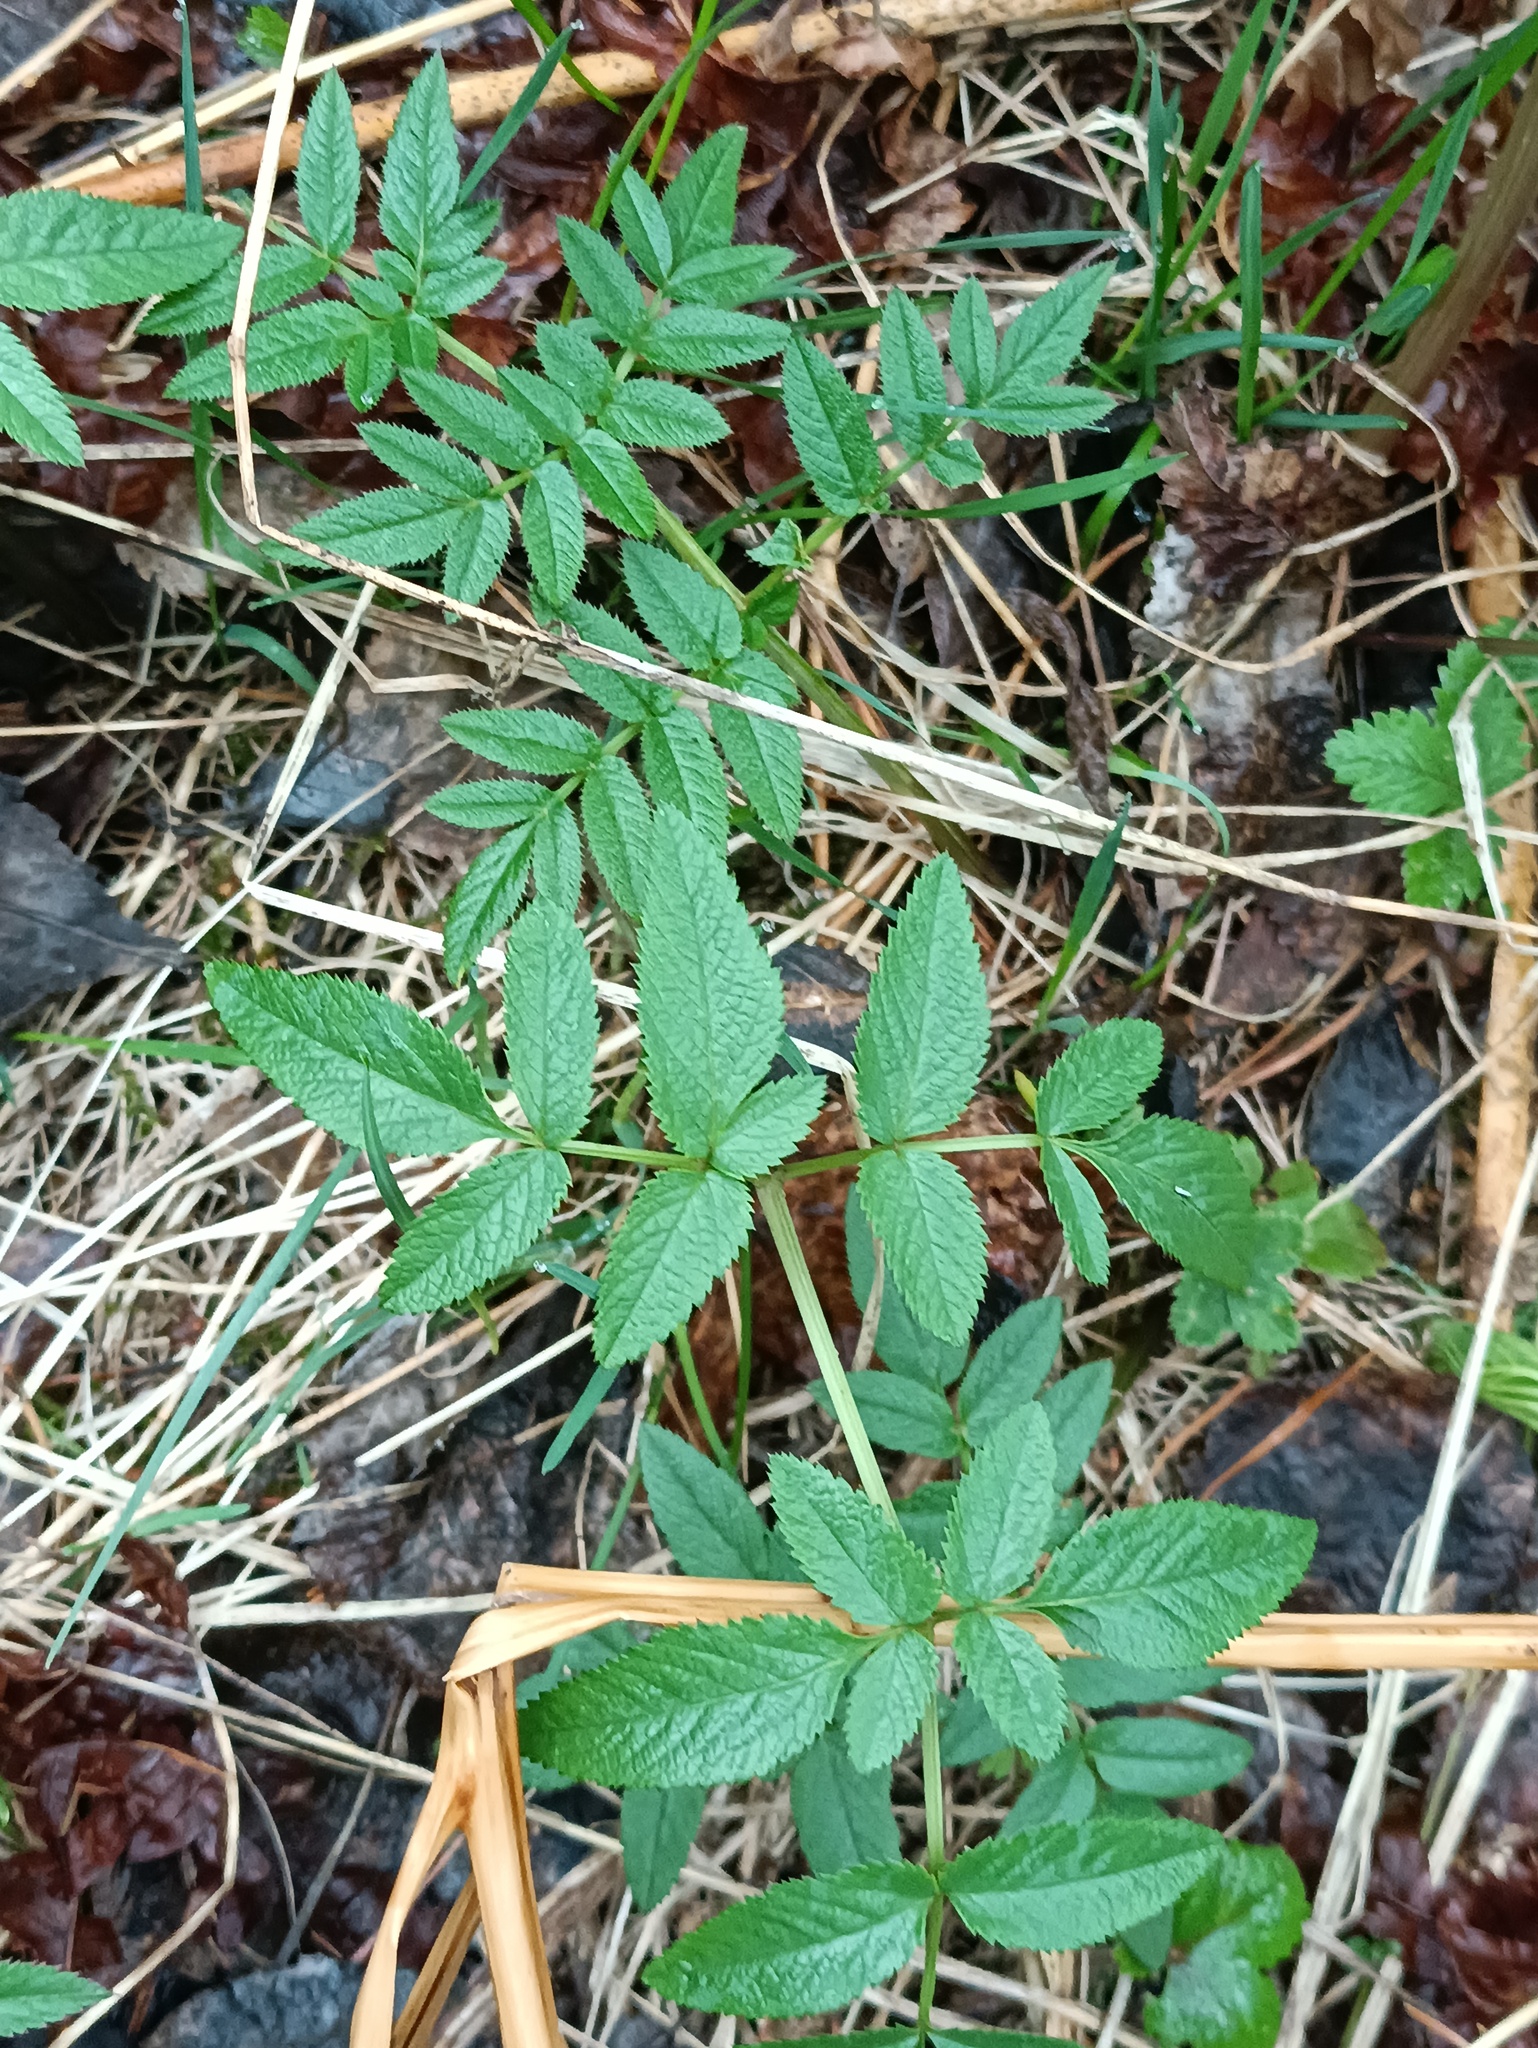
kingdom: Plantae
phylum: Tracheophyta
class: Magnoliopsida
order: Apiales
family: Apiaceae
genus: Angelica
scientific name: Angelica sylvestris
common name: Wild angelica
